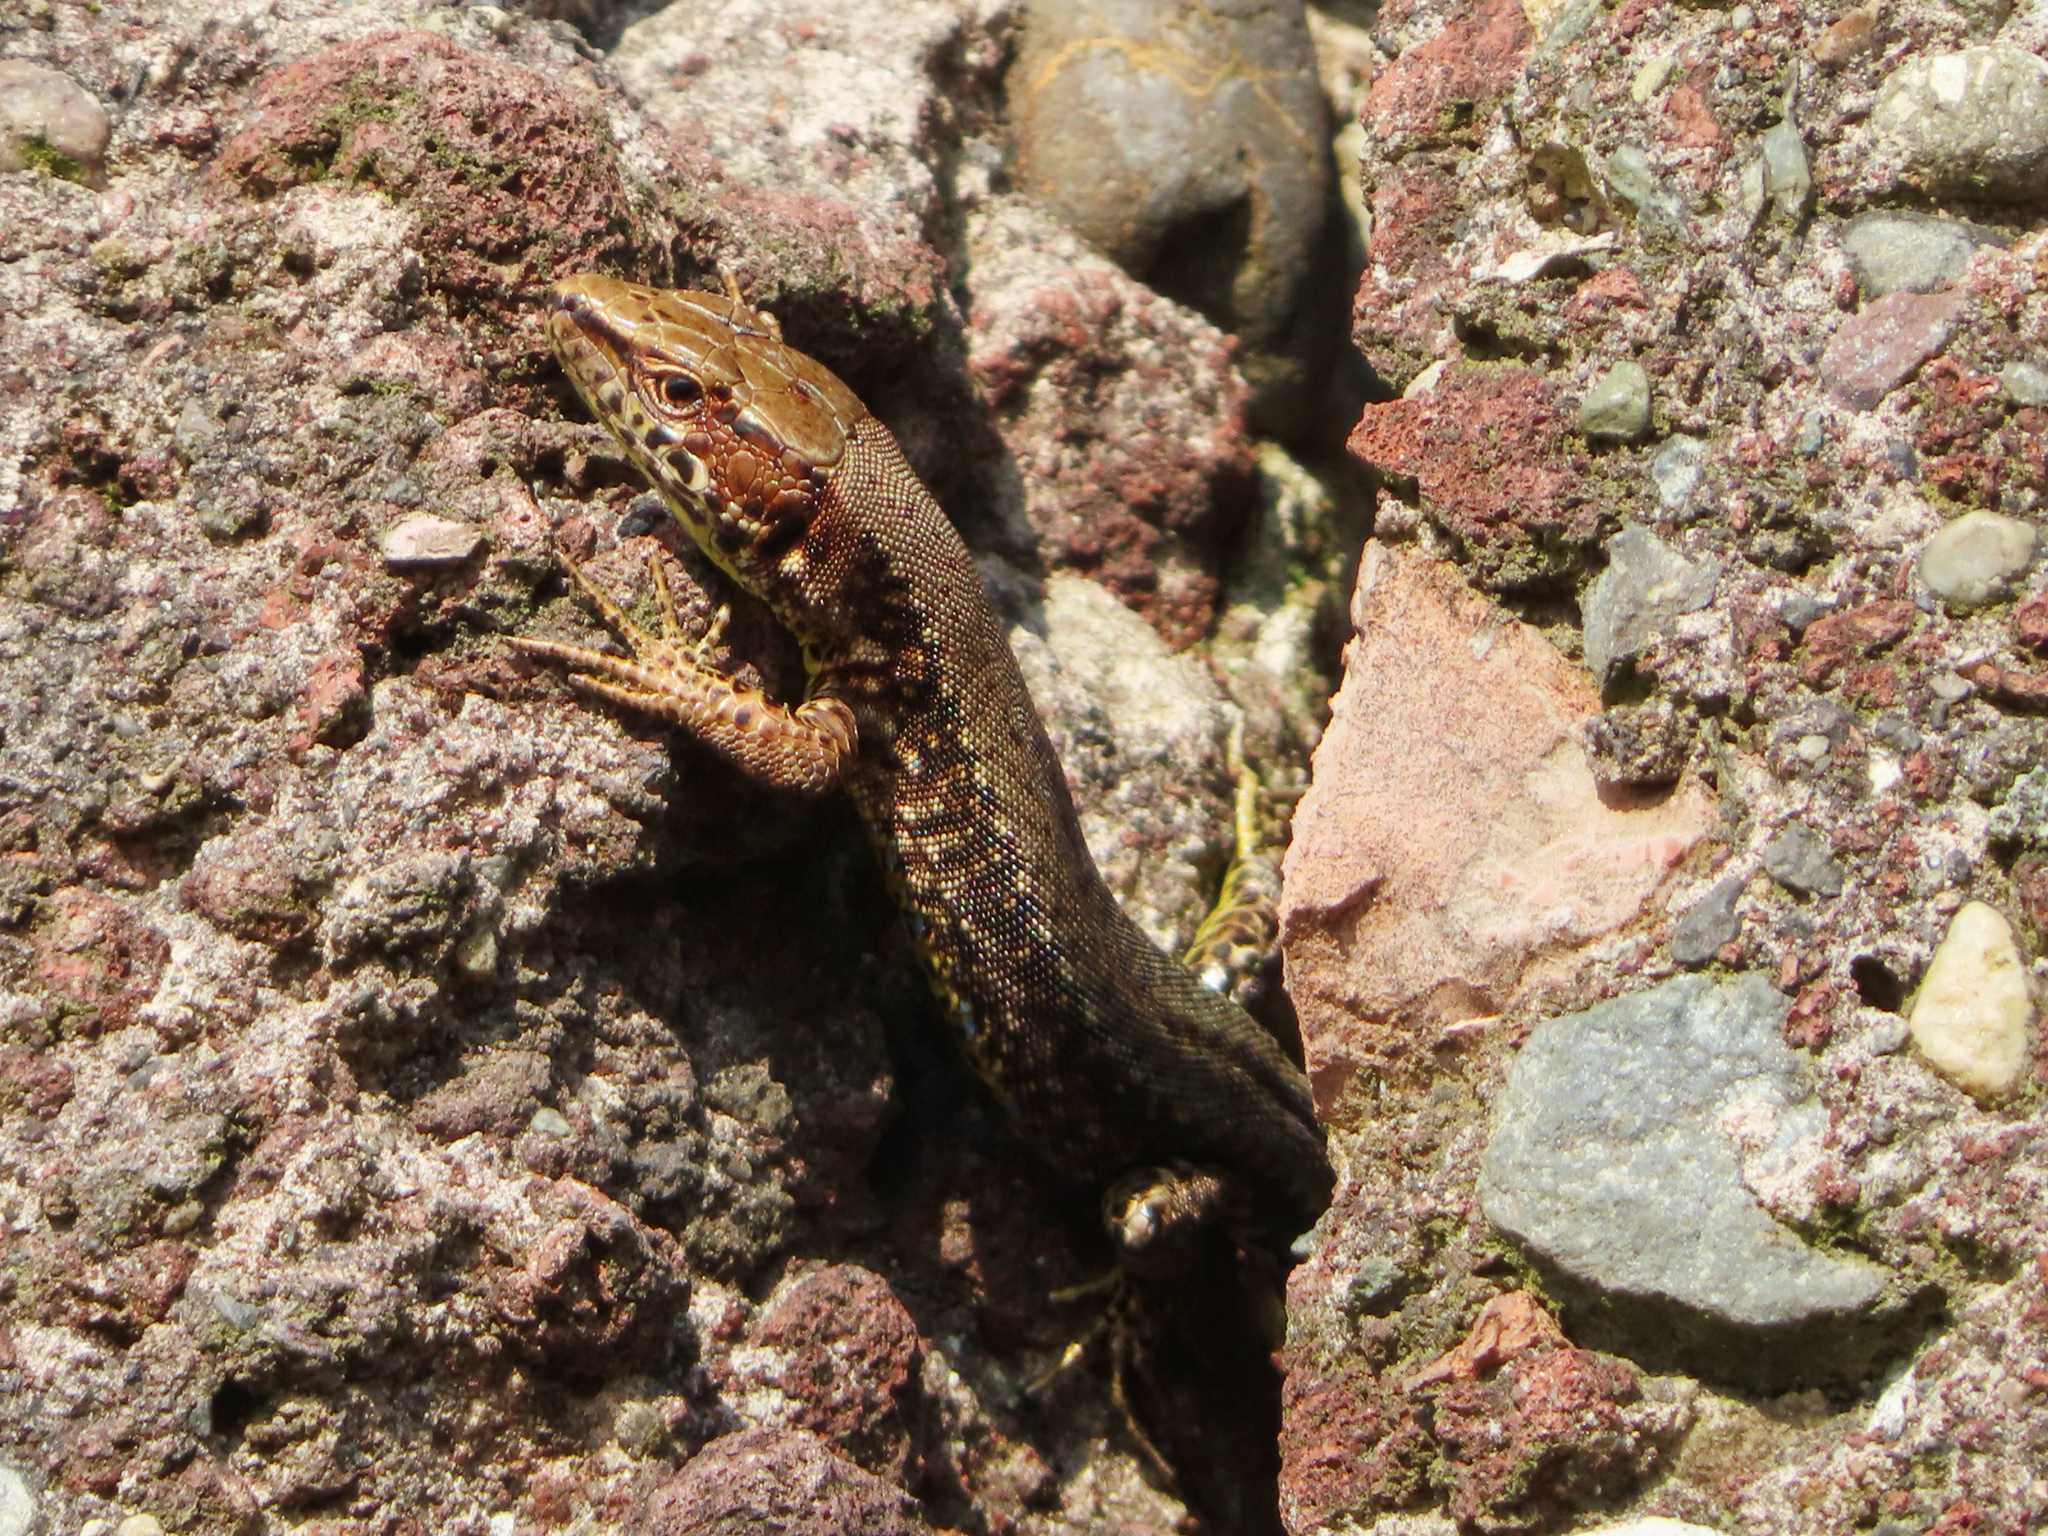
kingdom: Animalia
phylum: Chordata
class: Squamata
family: Lacertidae
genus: Darevskia
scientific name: Darevskia derjugini
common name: Derjugin's lizard
